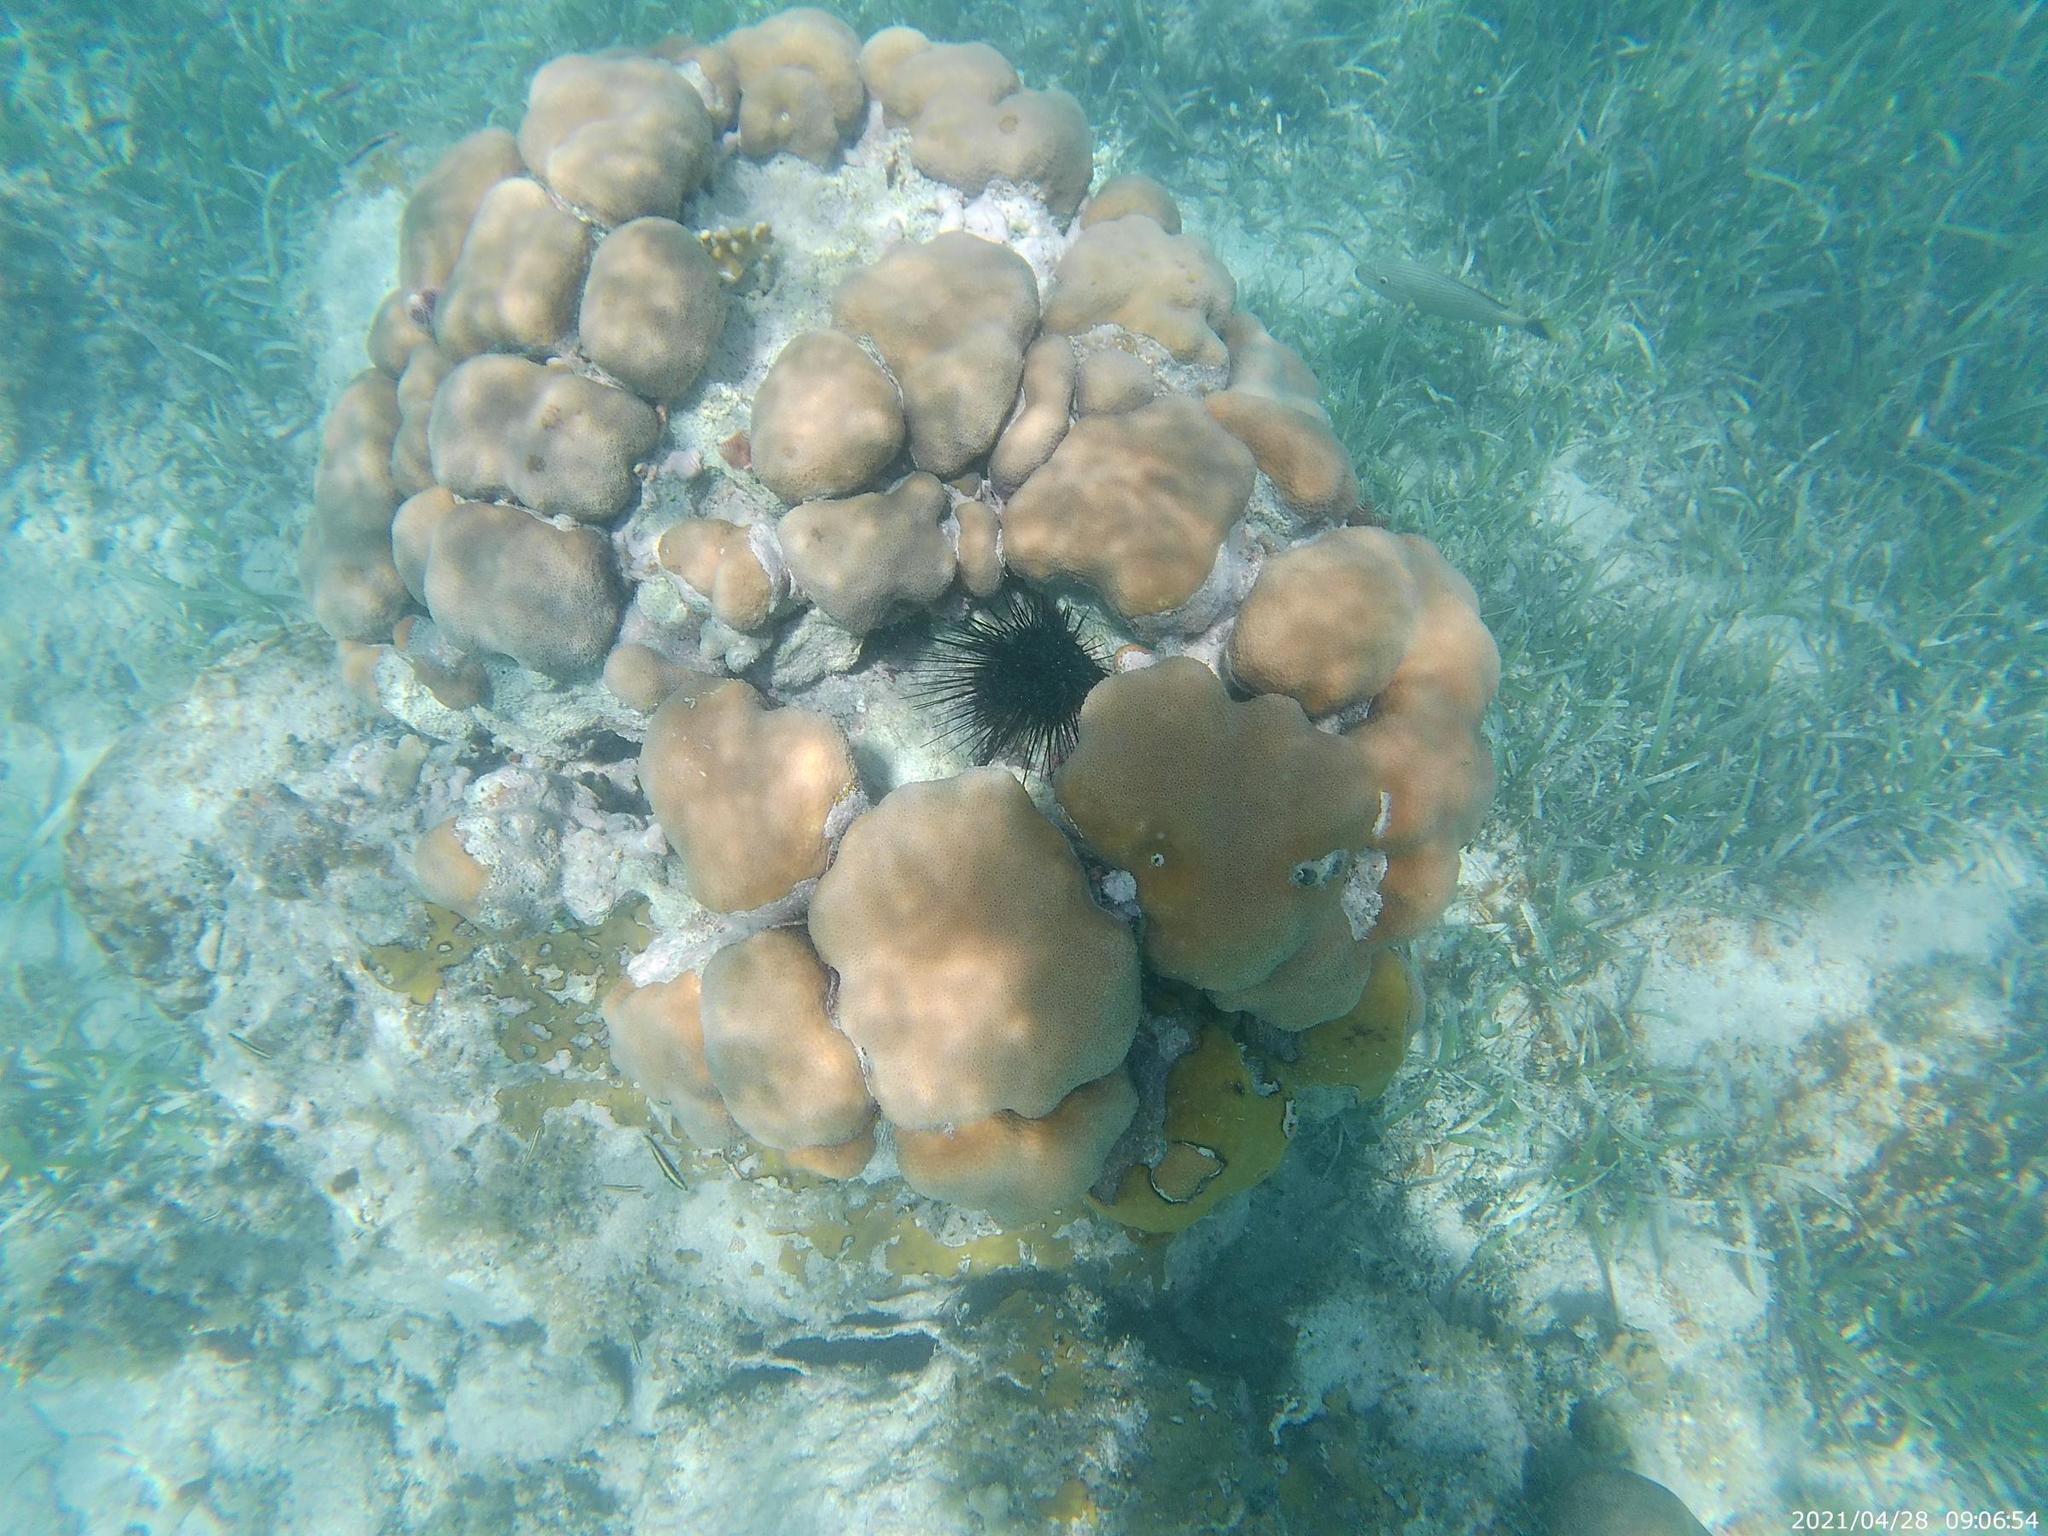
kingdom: Animalia
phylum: Cnidaria
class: Anthozoa
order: Scleractinia
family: Merulinidae
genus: Orbicella
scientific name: Orbicella annularis
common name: Boulder star coral
